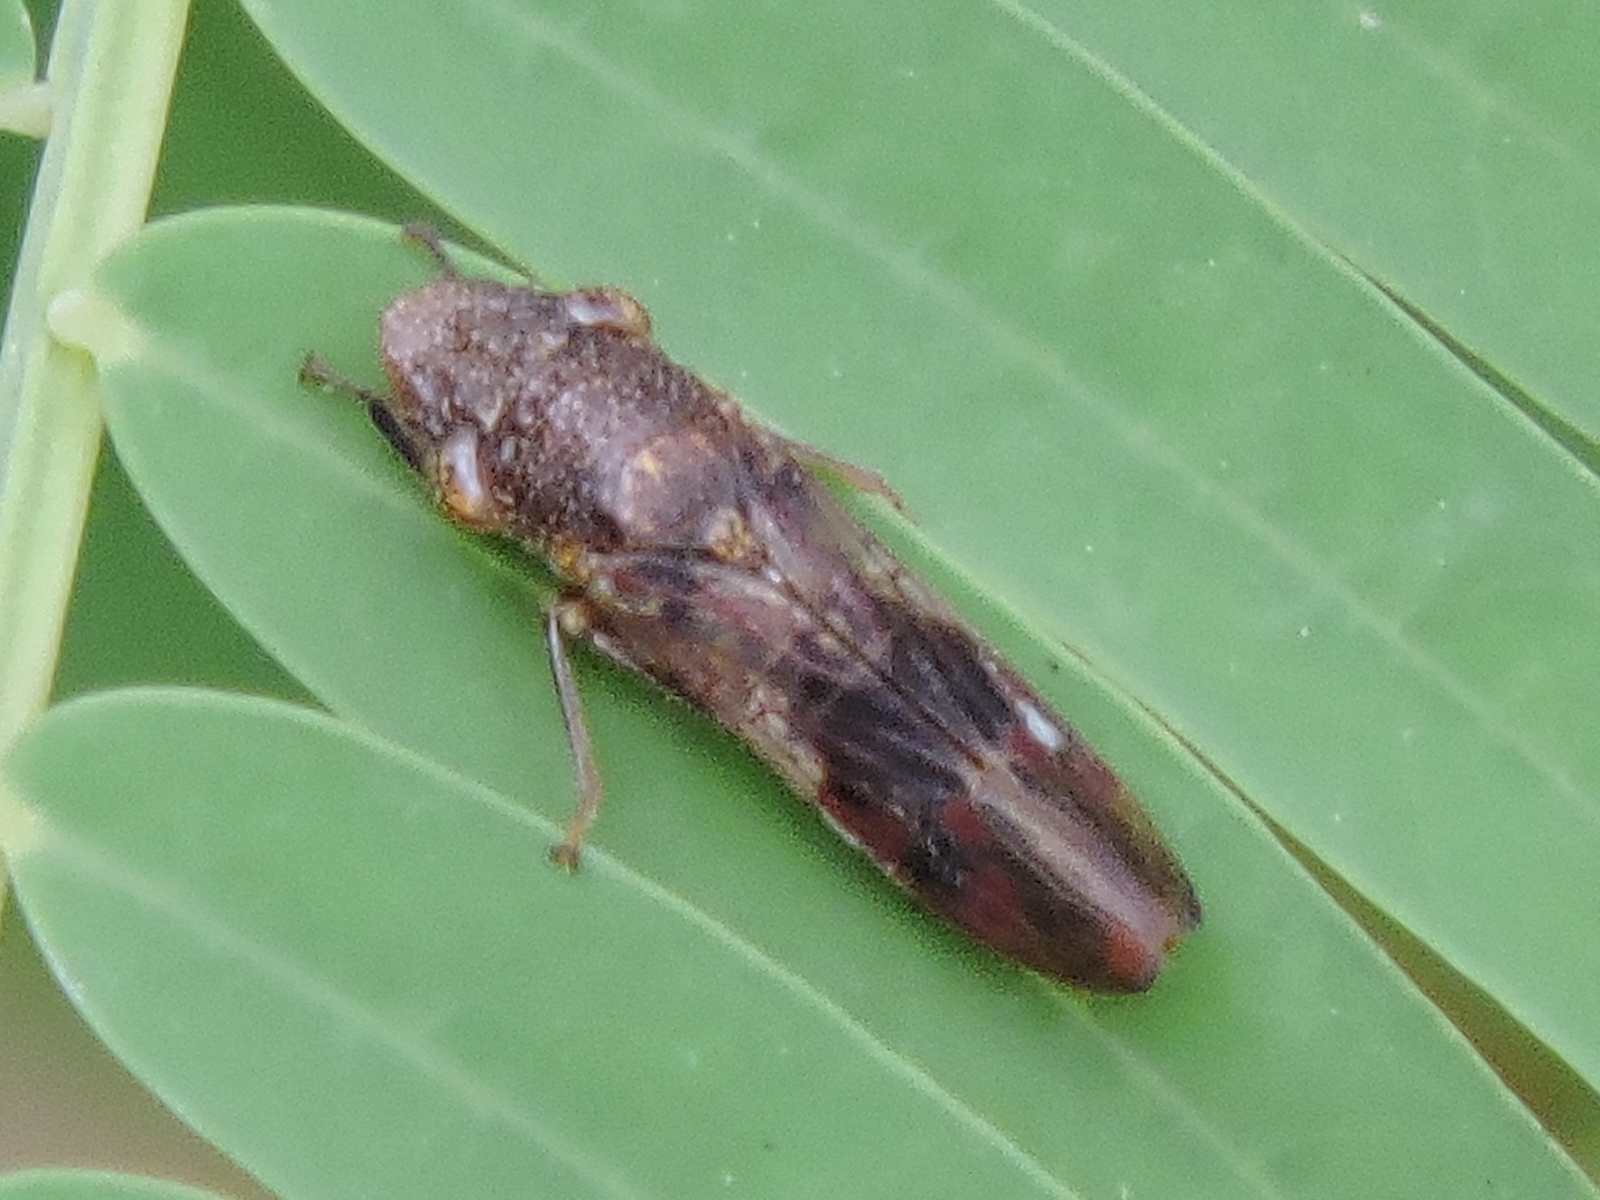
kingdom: Animalia
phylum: Arthropoda
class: Insecta
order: Hemiptera
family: Cicadellidae
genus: Homalodisca
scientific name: Homalodisca vitripennis
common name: Glassy-winged sharpshooter
